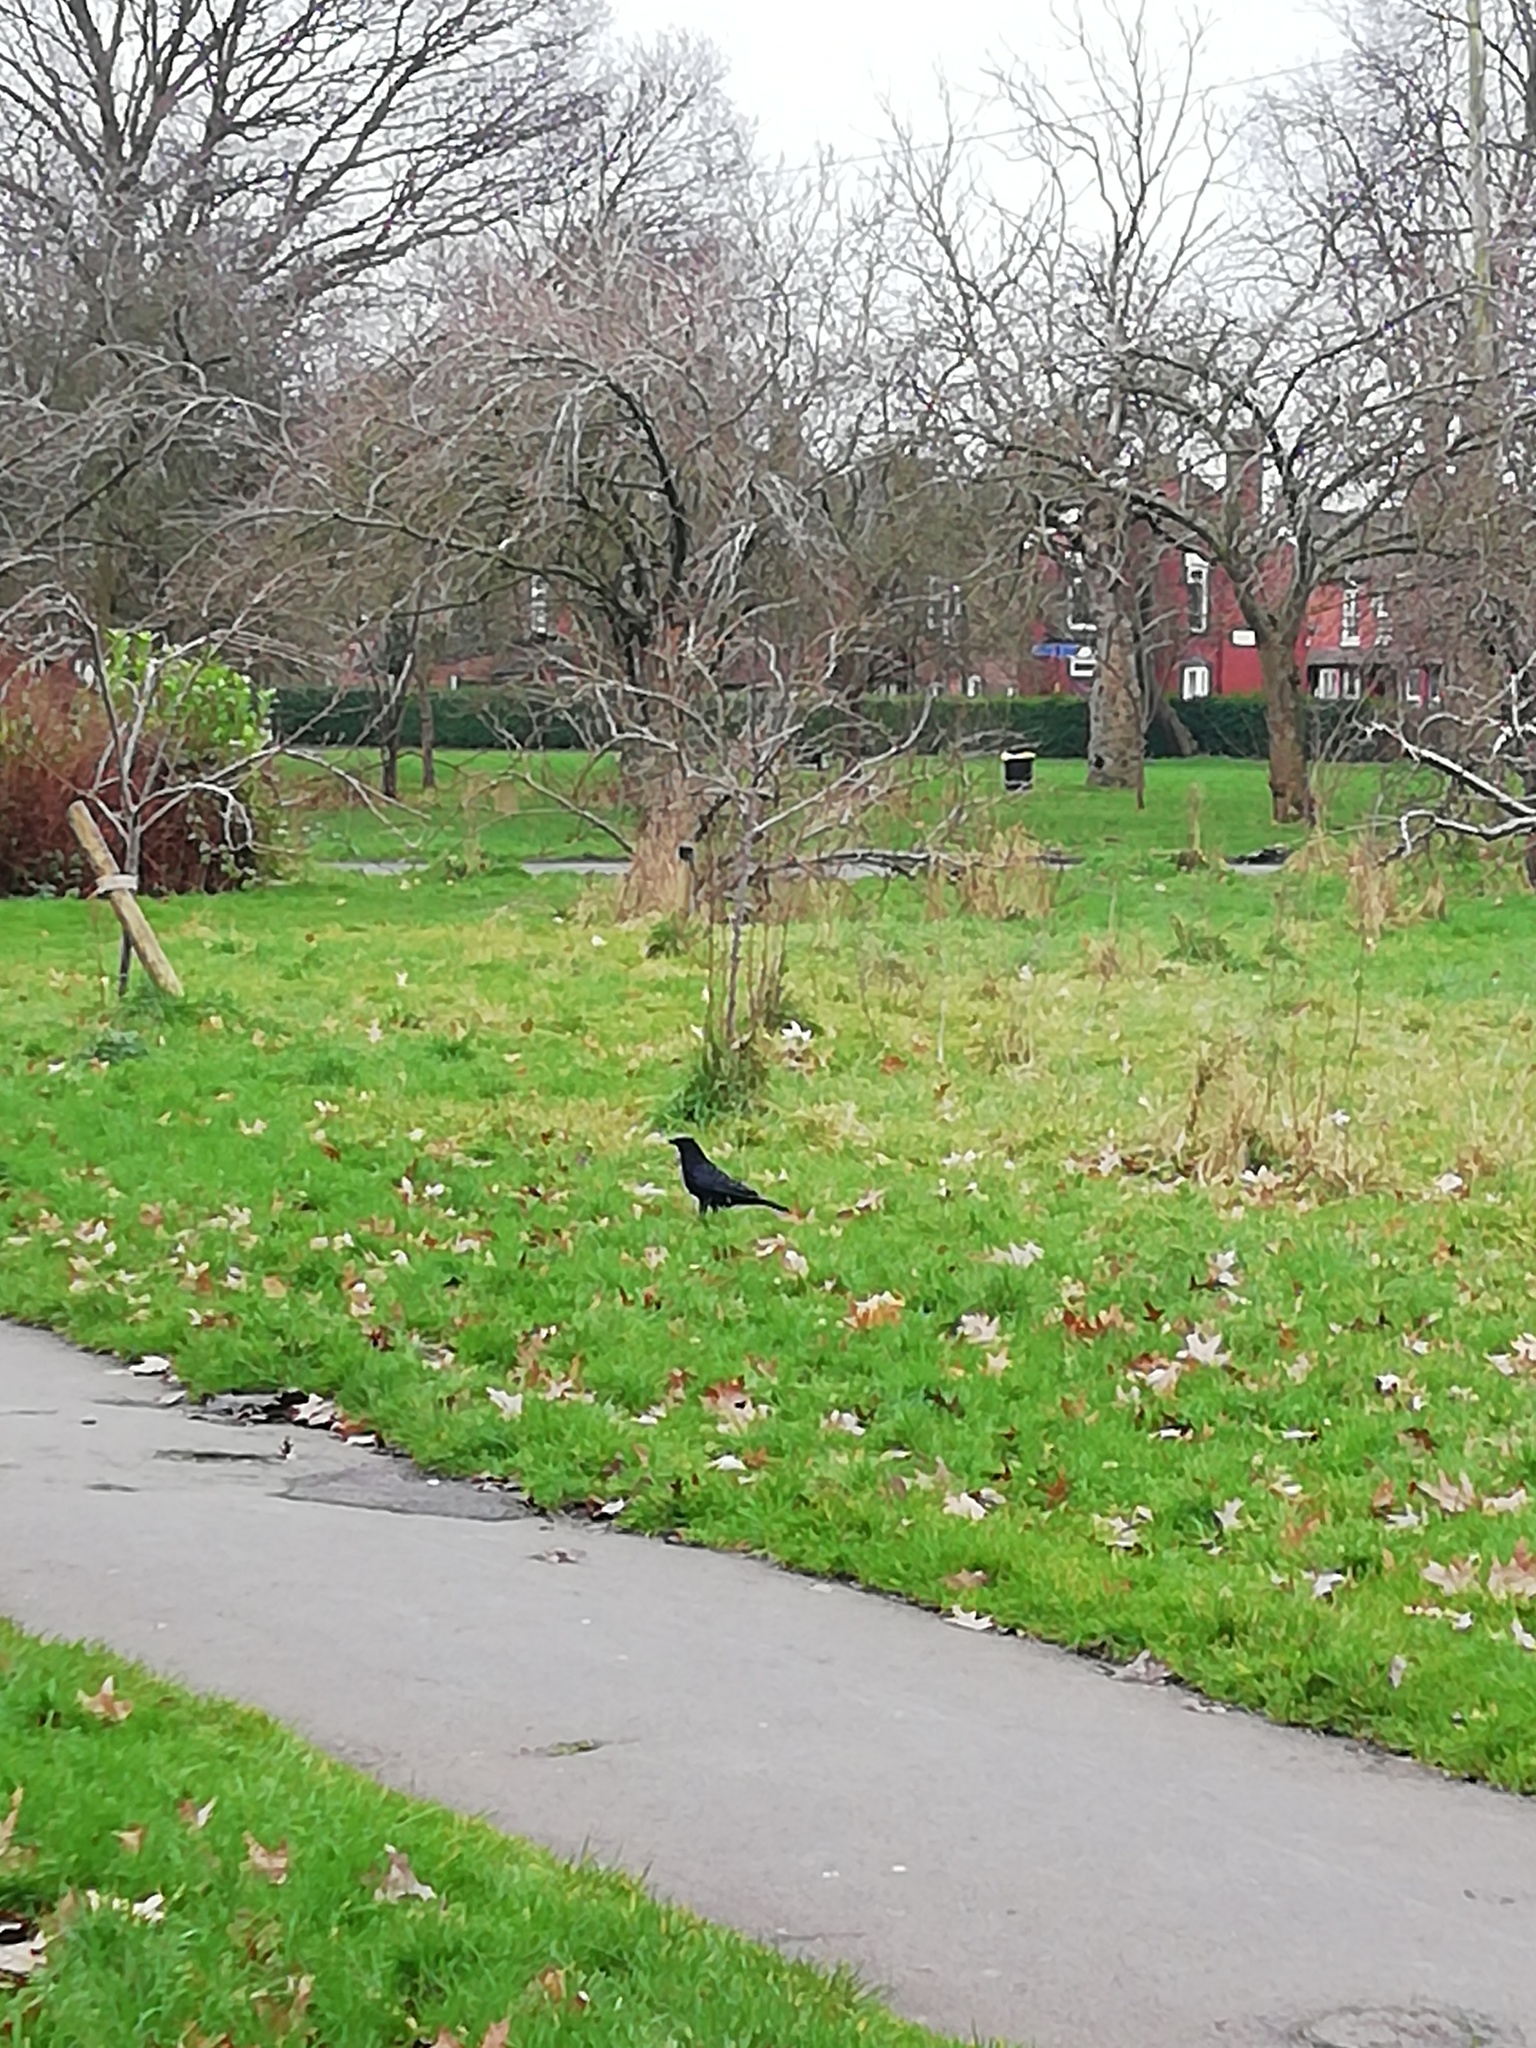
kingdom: Animalia
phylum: Chordata
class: Aves
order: Passeriformes
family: Corvidae
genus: Corvus
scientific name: Corvus corone
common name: Carrion crow
